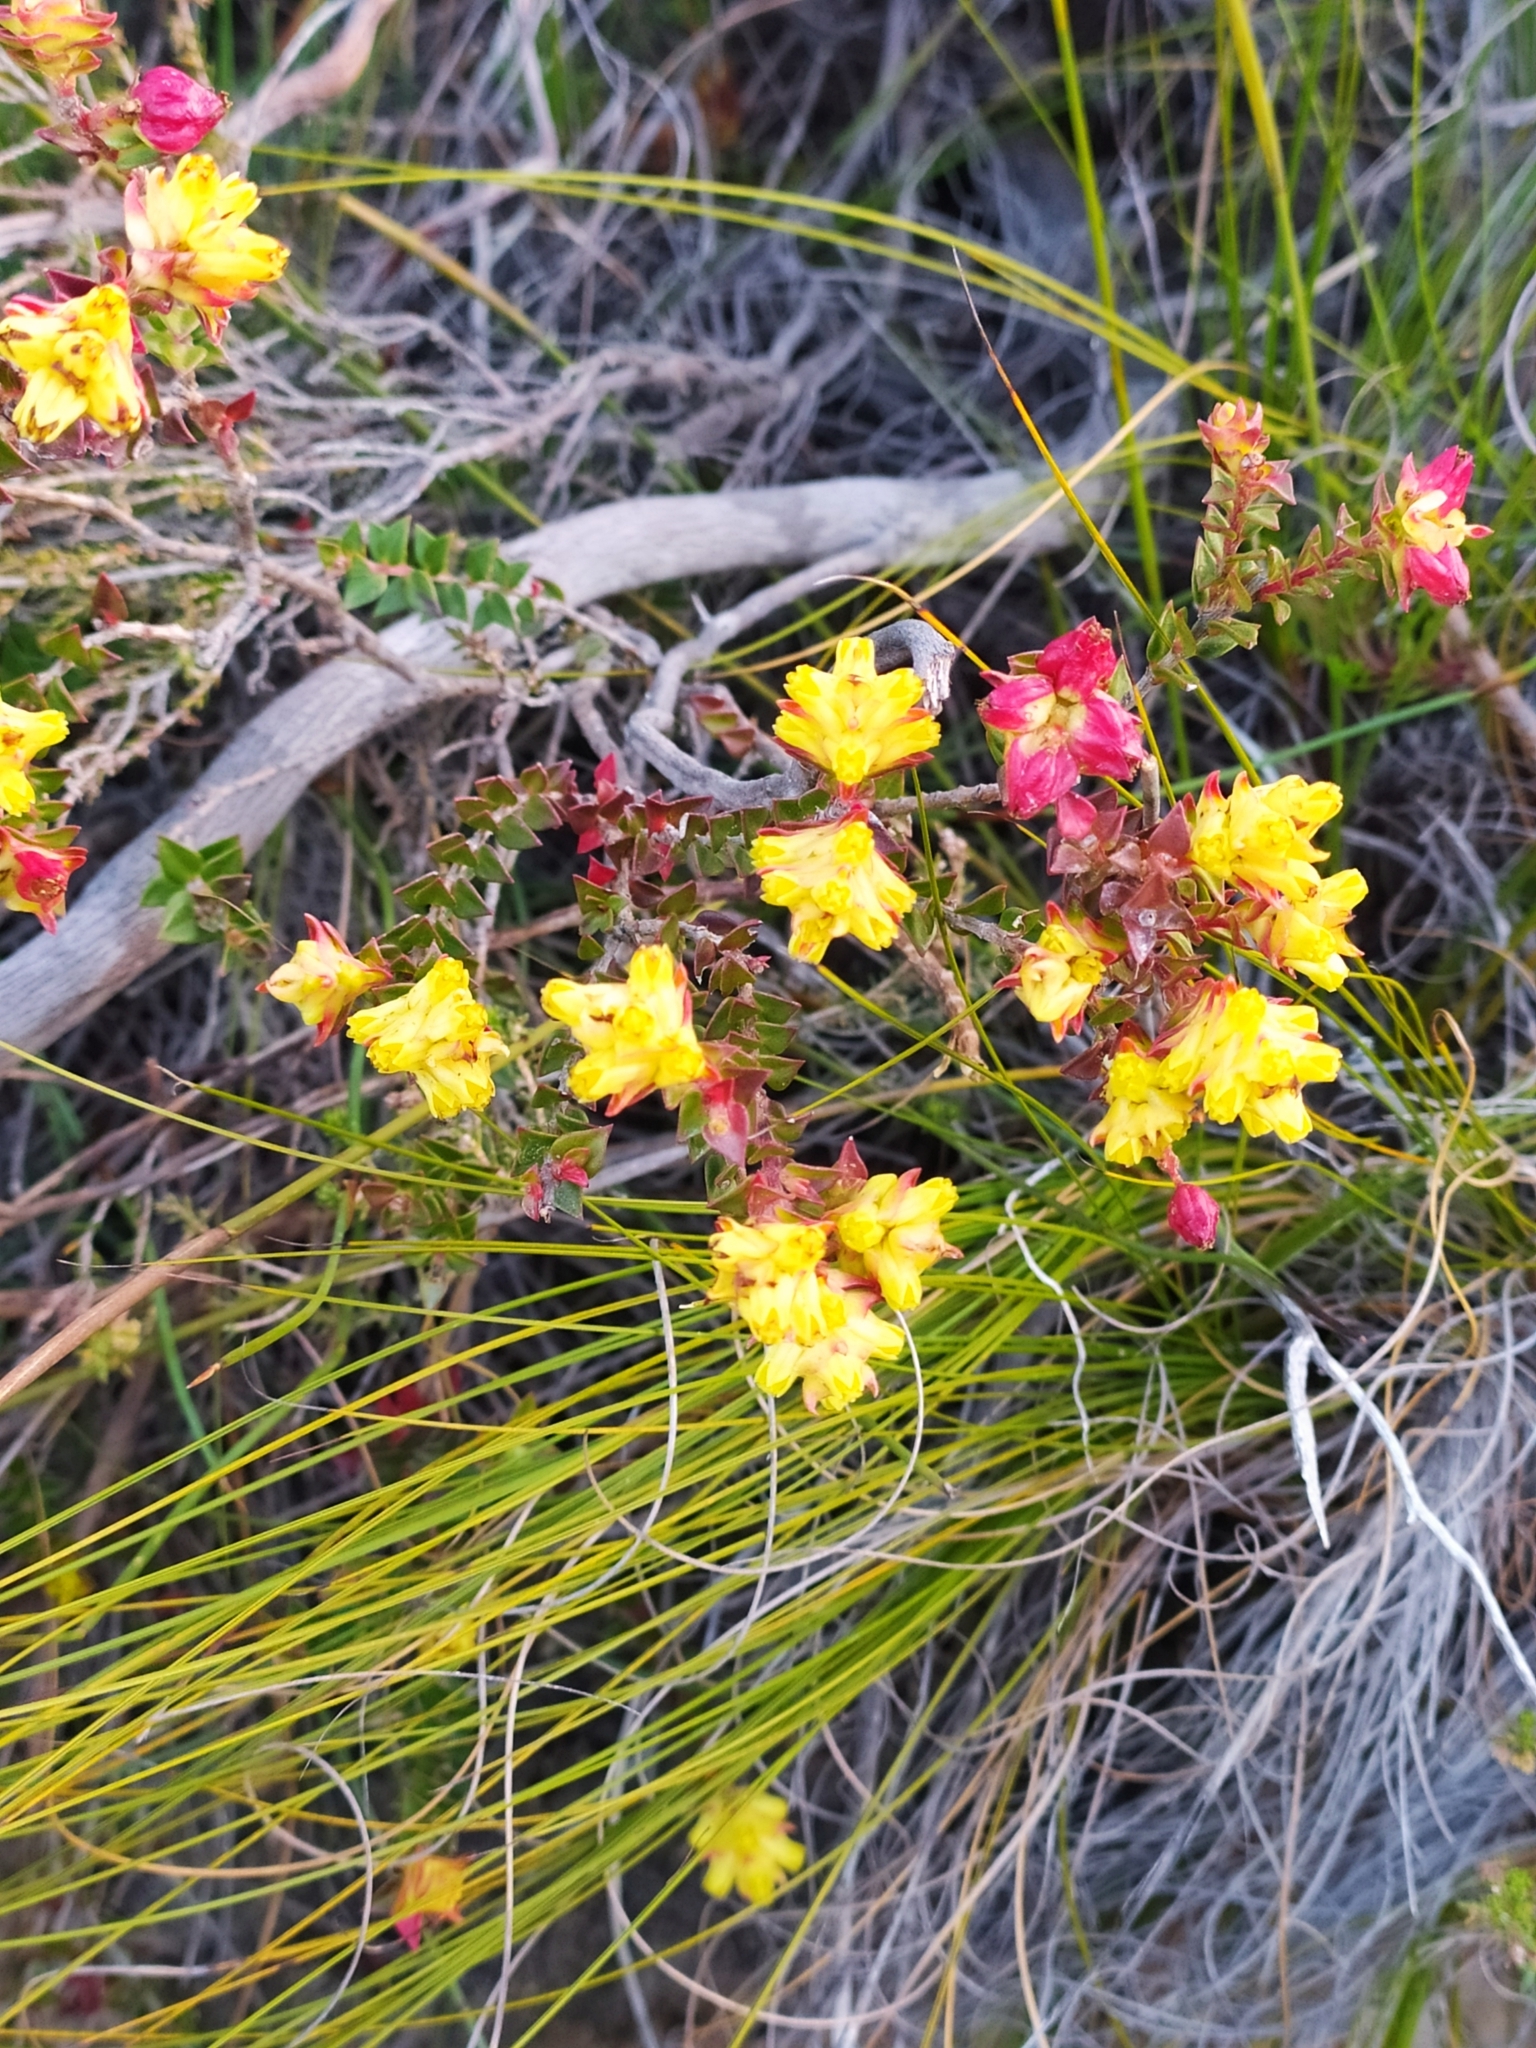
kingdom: Plantae
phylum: Tracheophyta
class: Magnoliopsida
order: Myrtales
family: Penaeaceae
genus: Penaea
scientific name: Penaea mucronata
